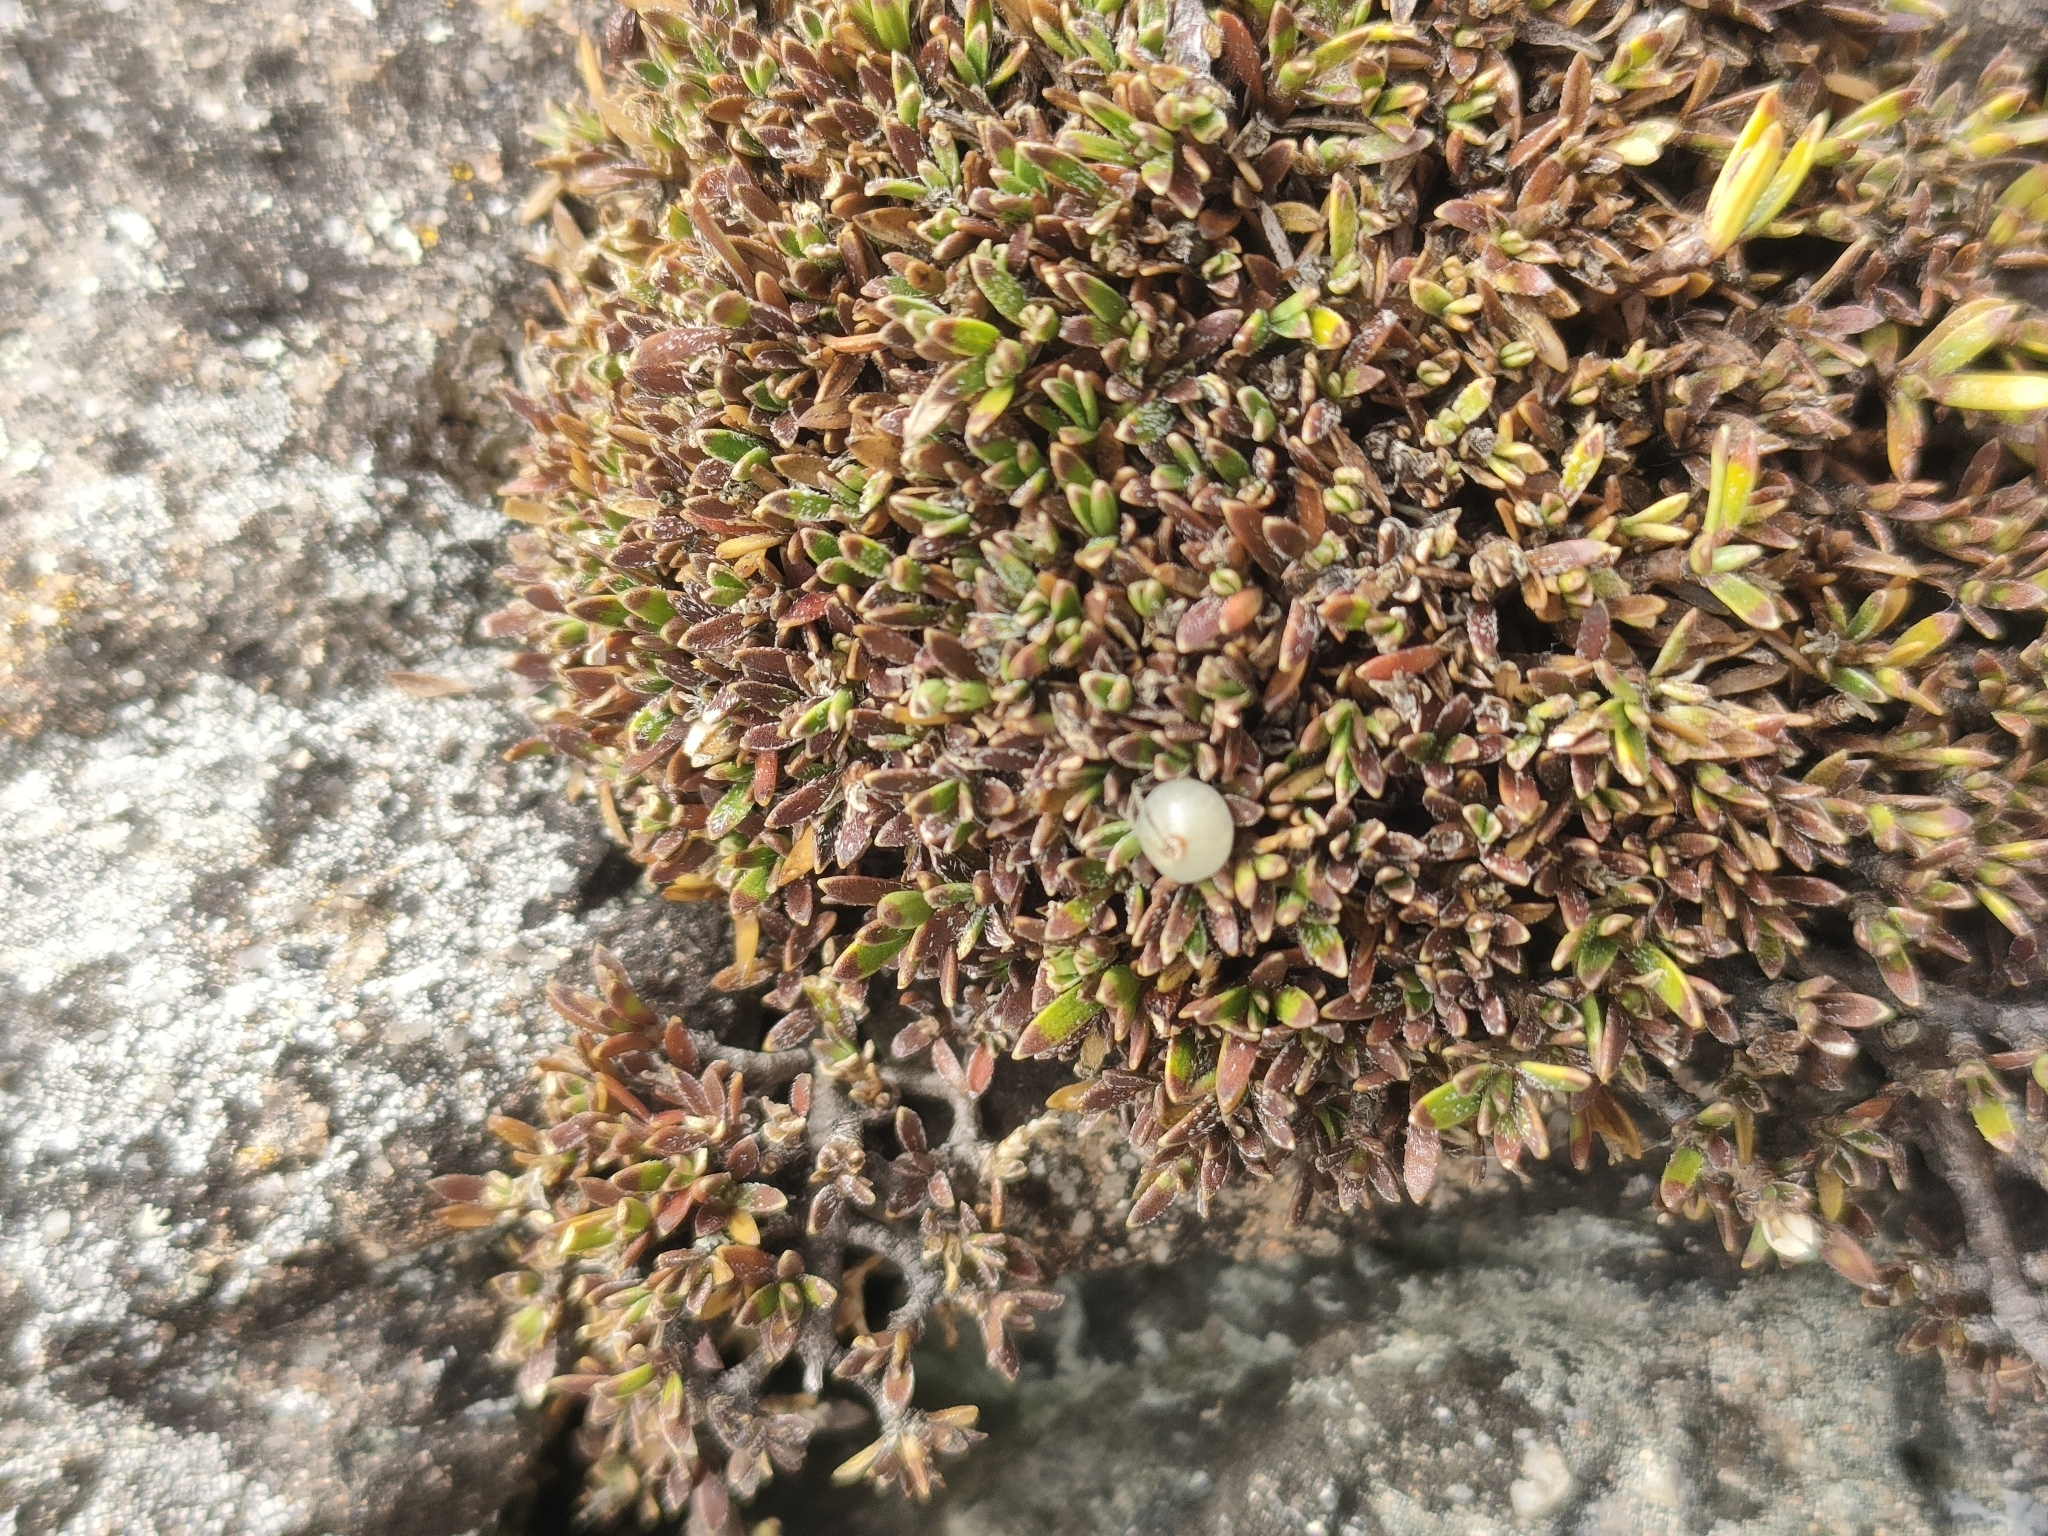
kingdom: Plantae
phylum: Tracheophyta
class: Magnoliopsida
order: Gentianales
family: Rubiaceae
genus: Coprosma
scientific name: Coprosma petriei
